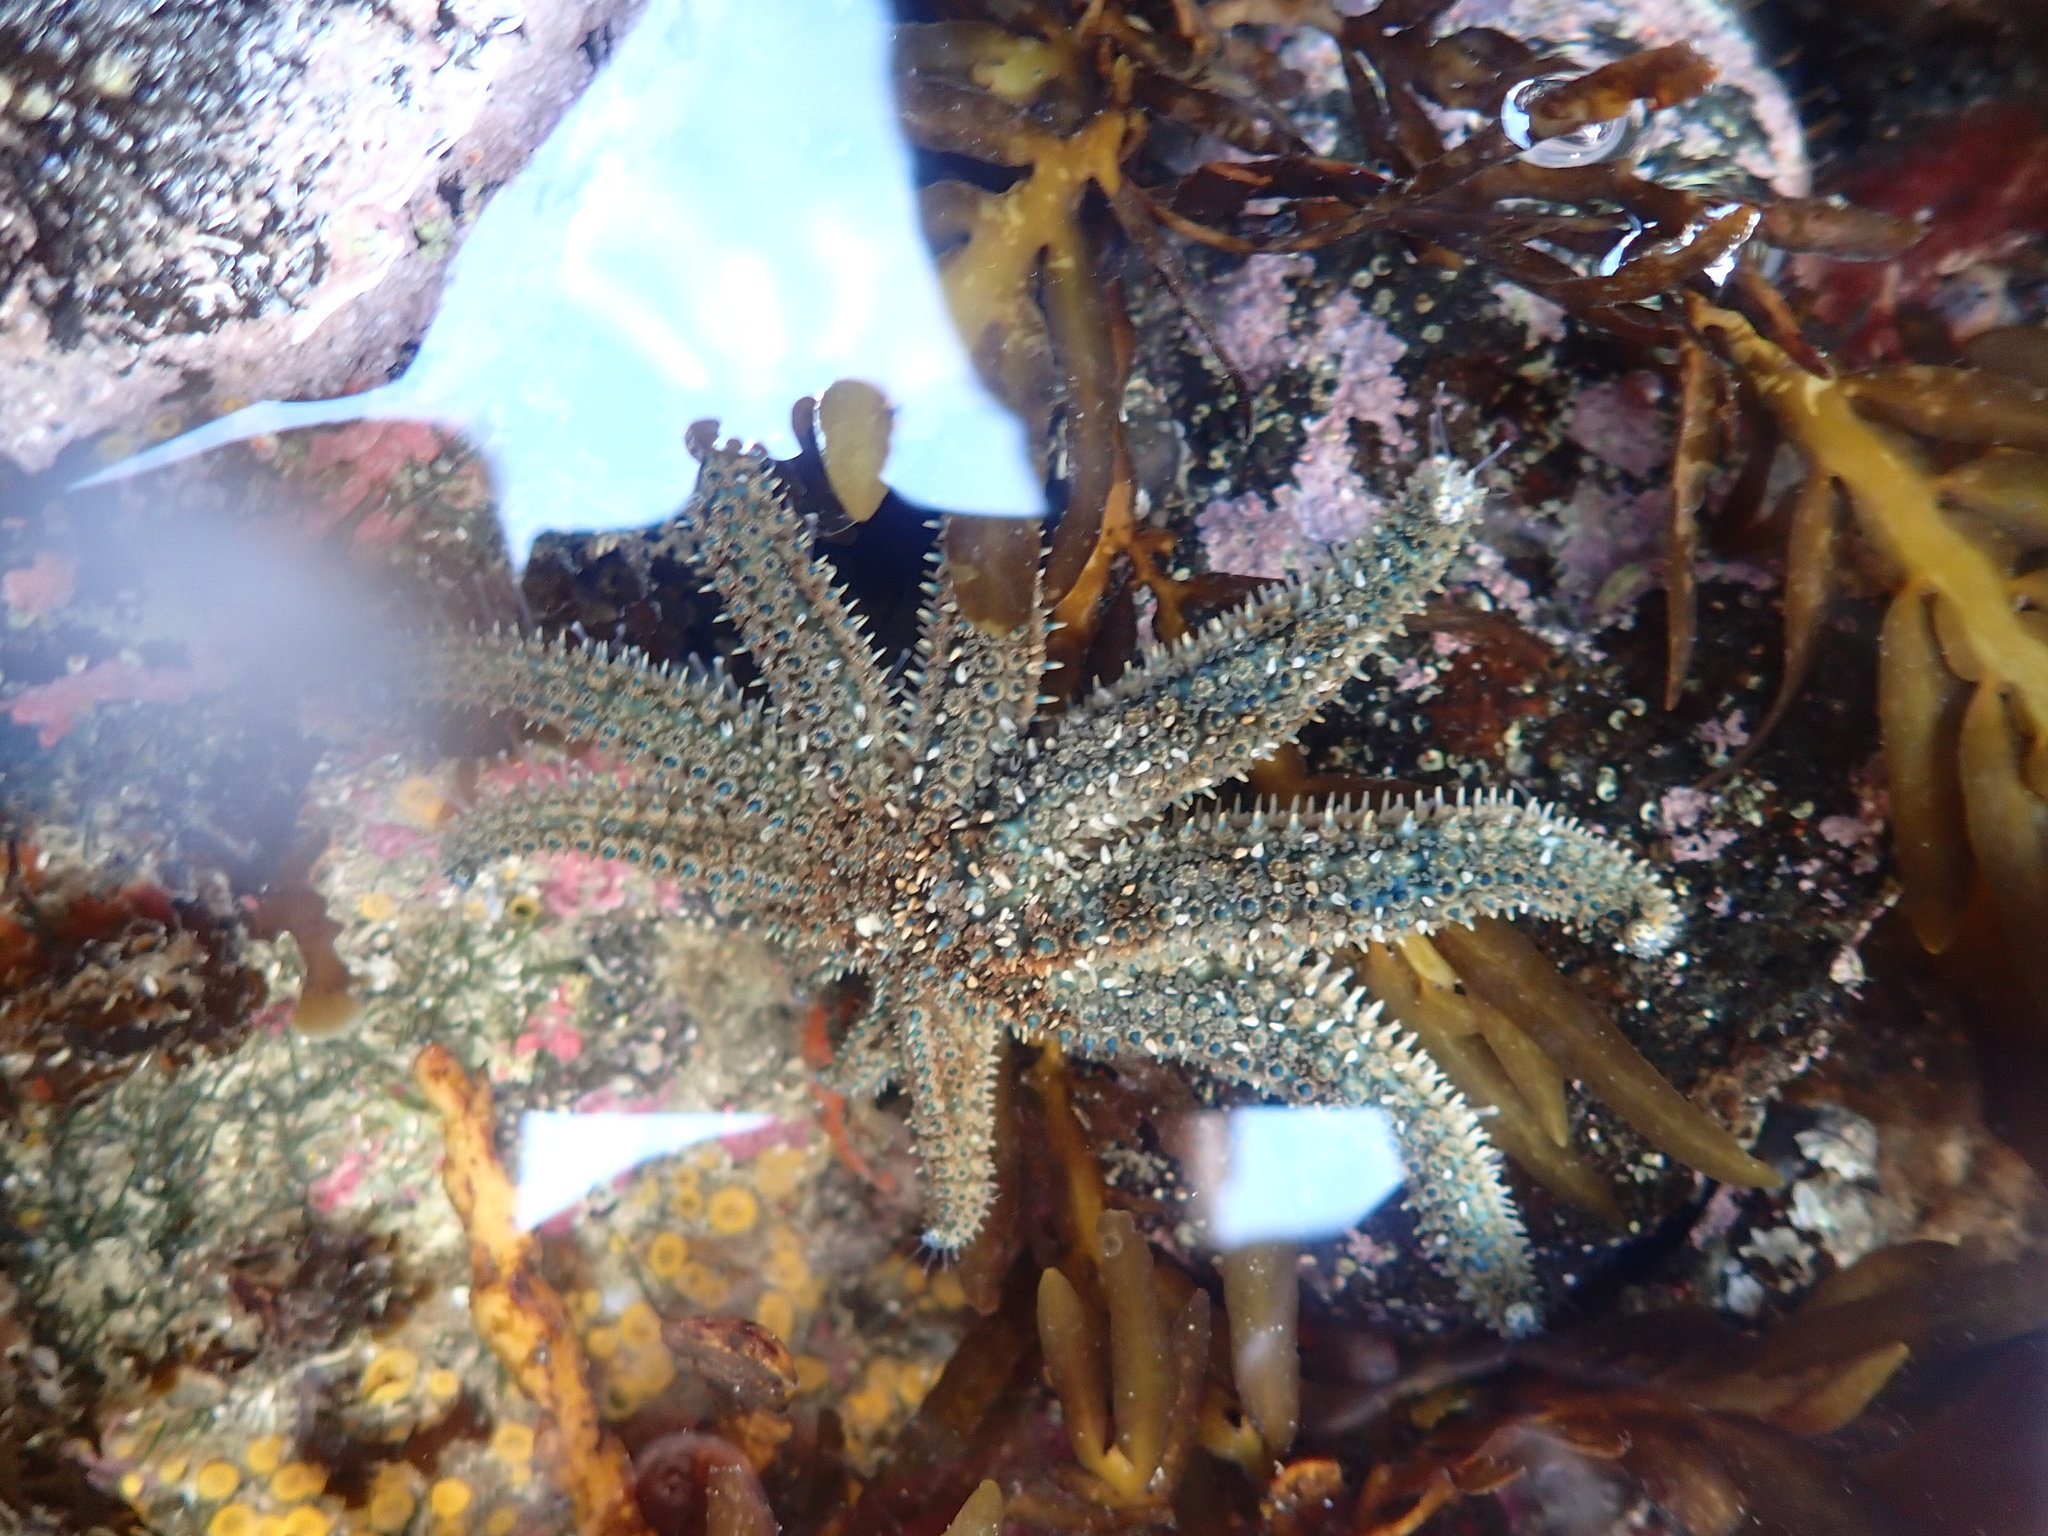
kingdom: Animalia
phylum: Echinodermata
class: Asteroidea
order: Forcipulatida
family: Asteriidae
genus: Coscinasterias
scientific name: Coscinasterias muricata
